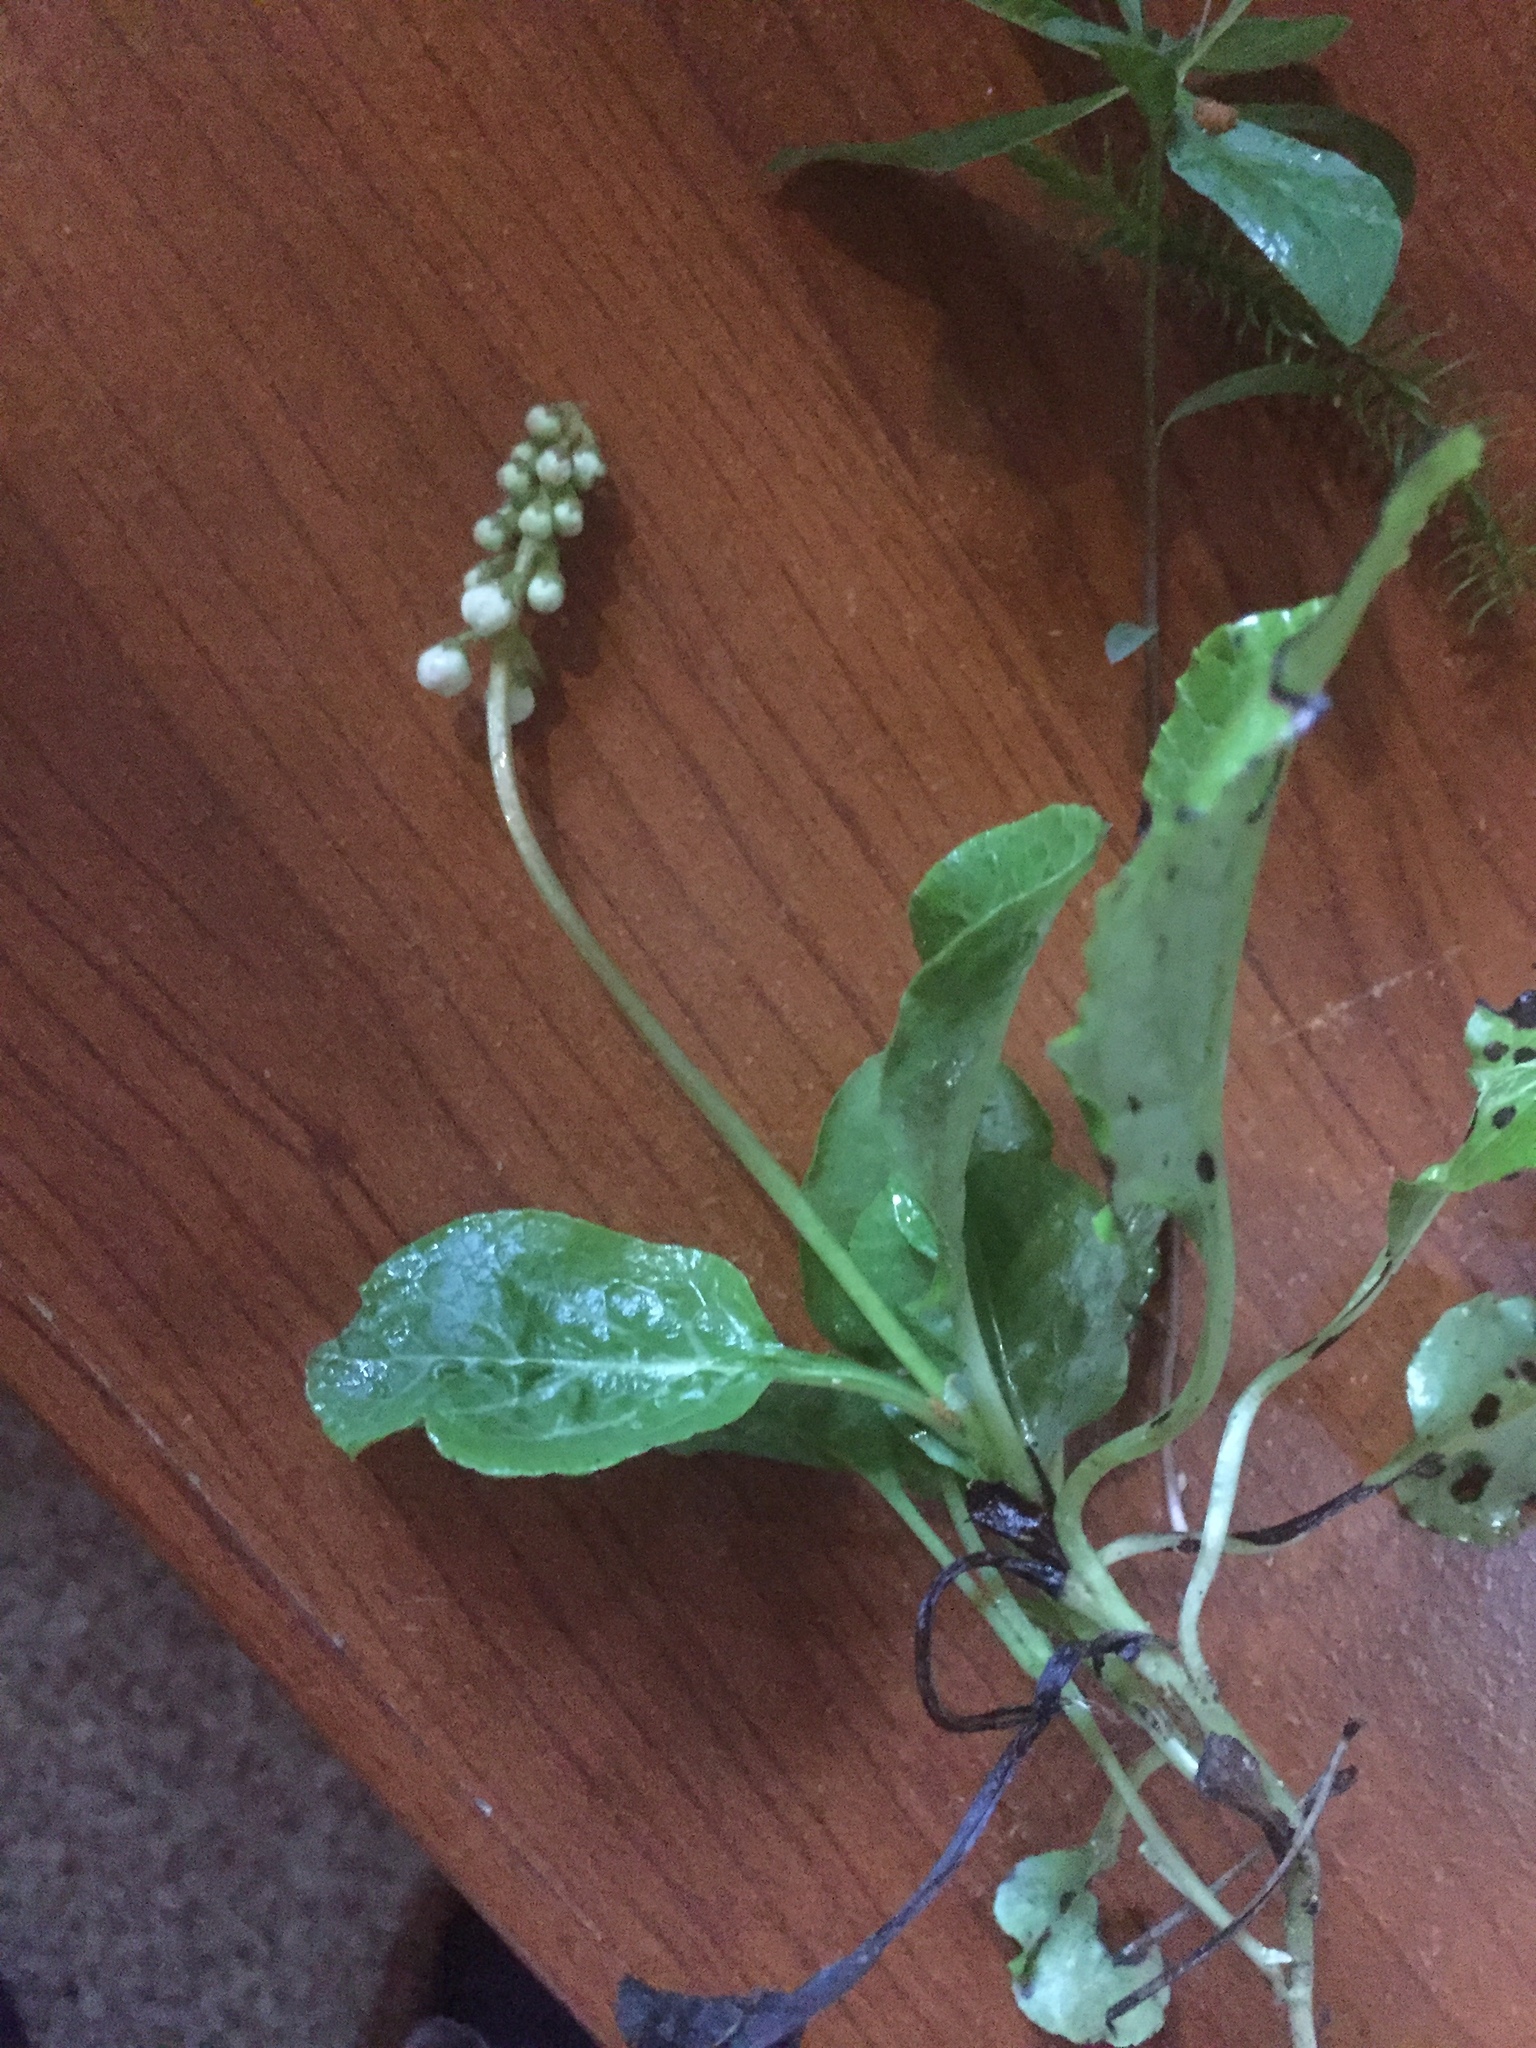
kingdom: Plantae
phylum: Tracheophyta
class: Magnoliopsida
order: Ericales
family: Ericaceae
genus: Pyrola
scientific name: Pyrola minor
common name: Common wintergreen
